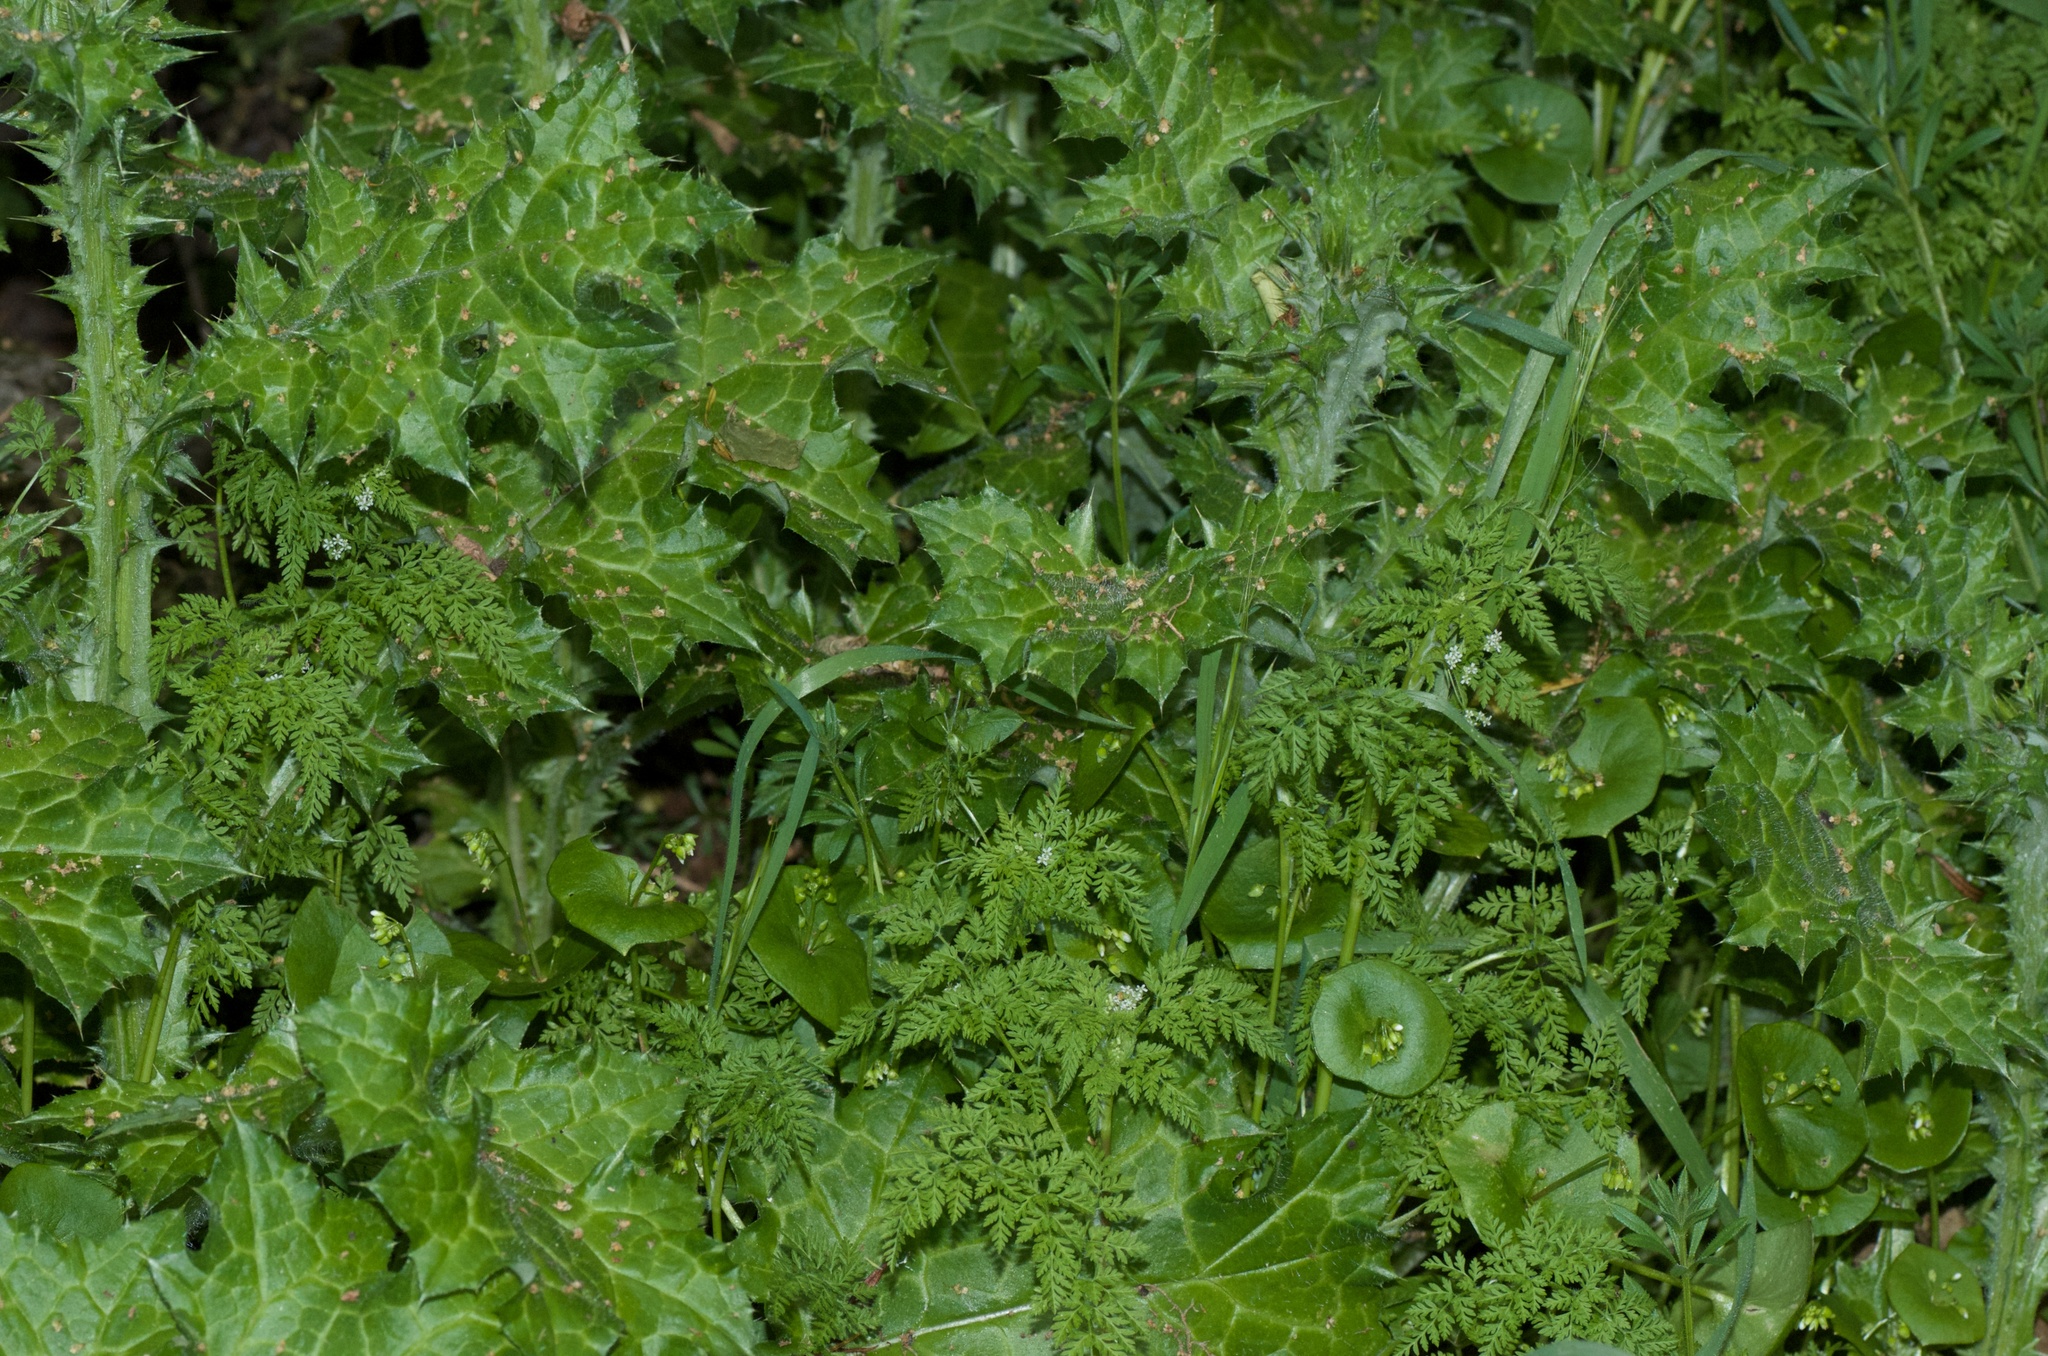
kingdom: Plantae
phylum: Tracheophyta
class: Magnoliopsida
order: Caryophyllales
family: Montiaceae
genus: Claytonia
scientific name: Claytonia perfoliata
